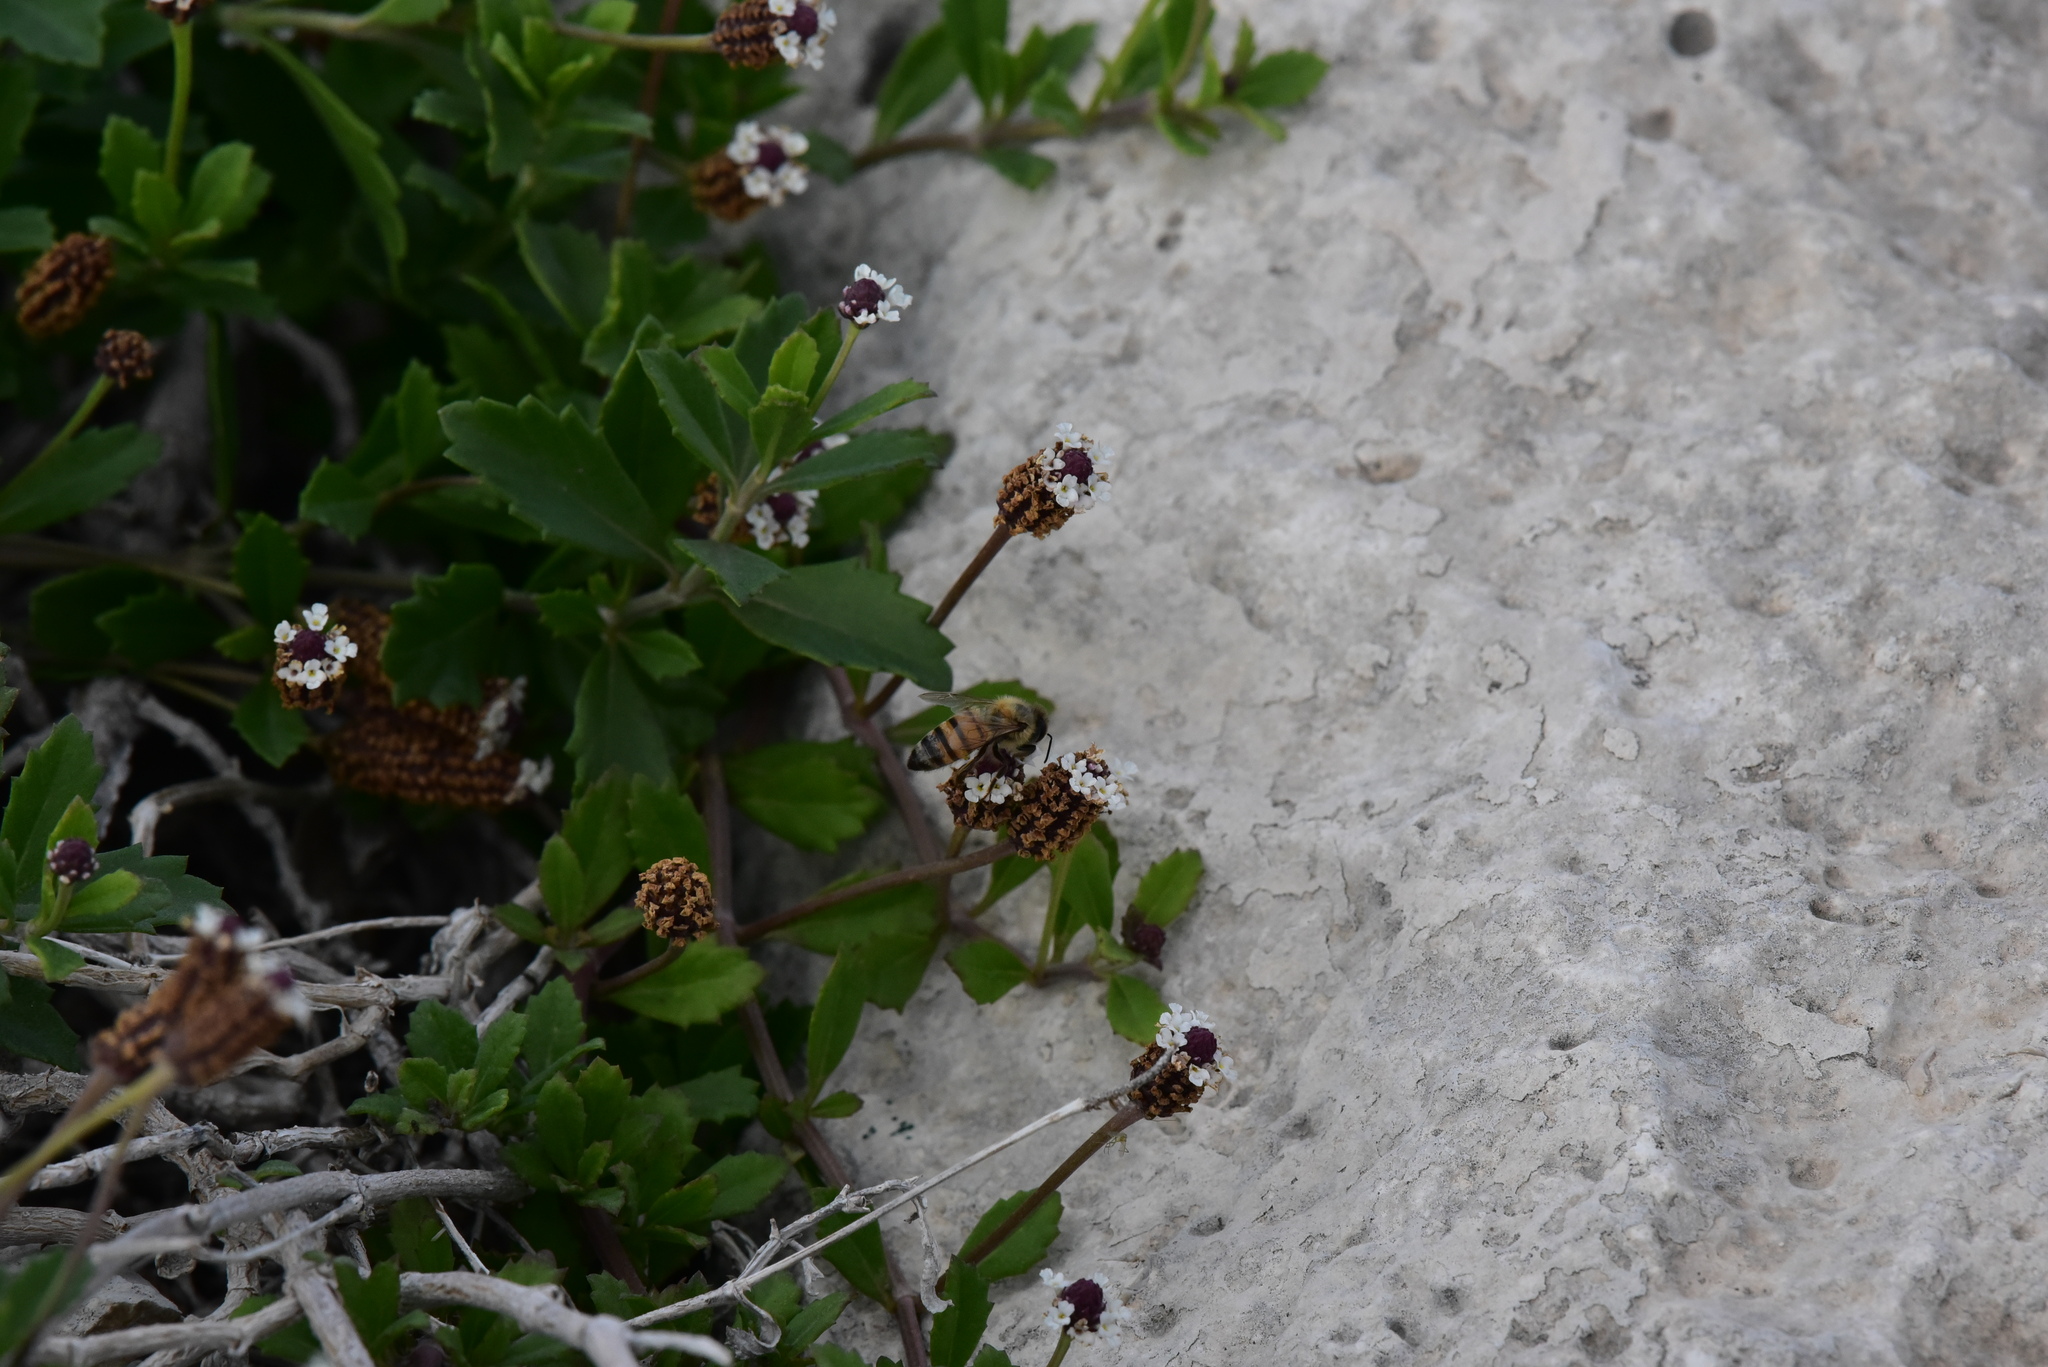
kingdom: Animalia
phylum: Arthropoda
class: Insecta
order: Hymenoptera
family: Apidae
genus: Apis
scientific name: Apis mellifera
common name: Honey bee
